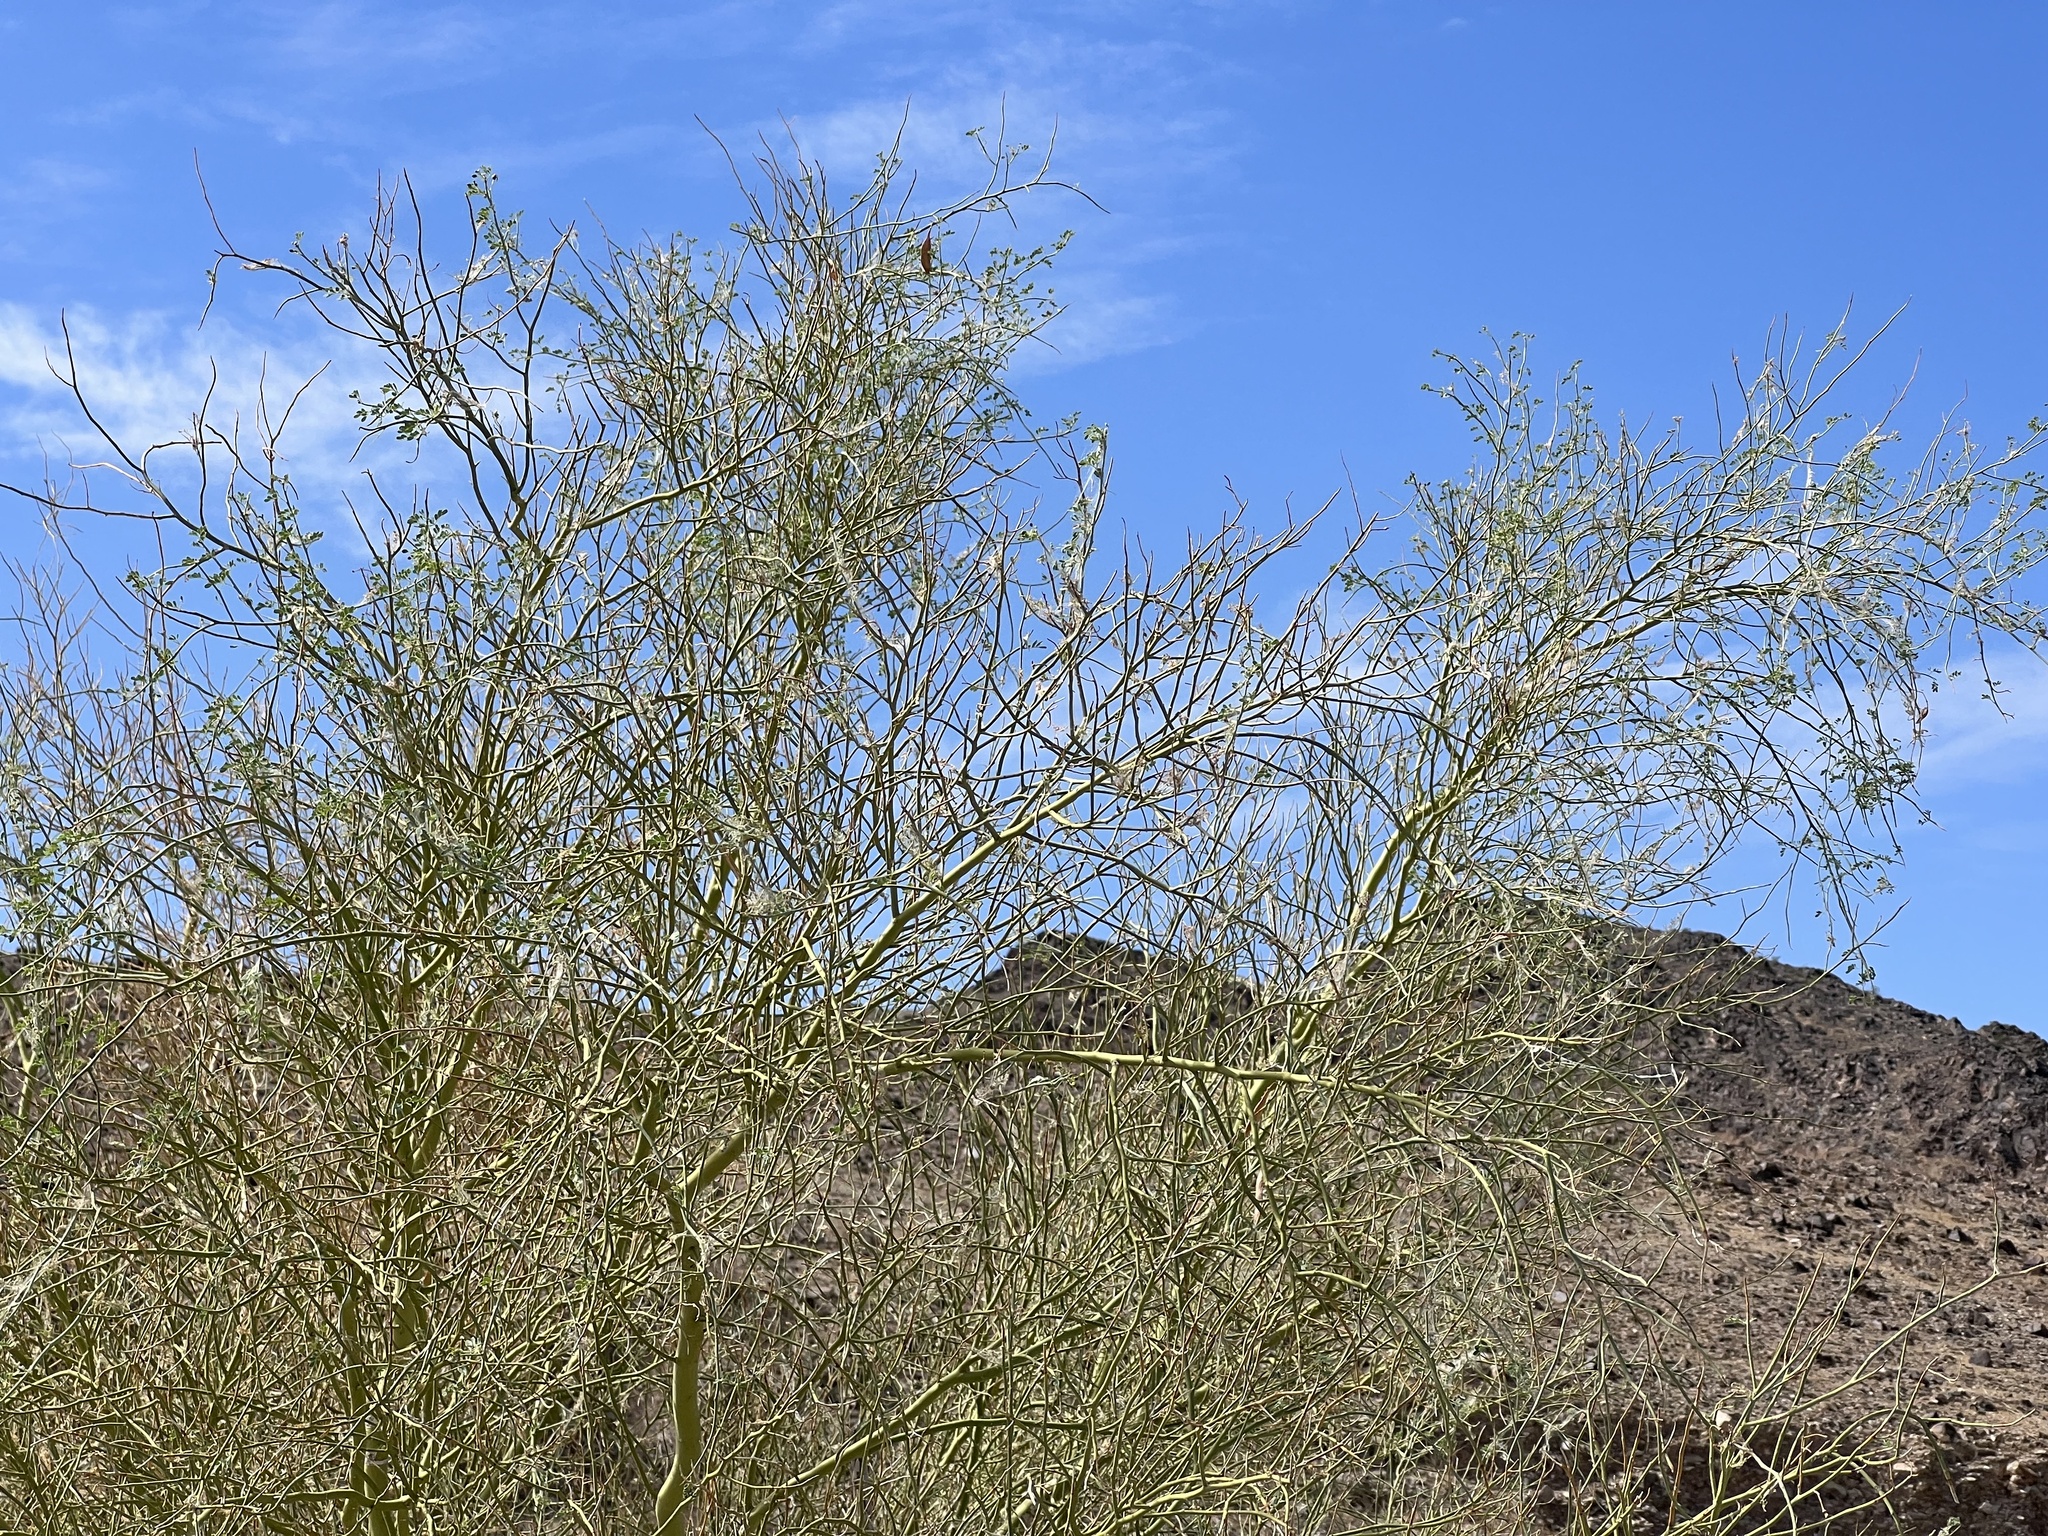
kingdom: Plantae
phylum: Tracheophyta
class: Magnoliopsida
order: Fabales
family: Fabaceae
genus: Parkinsonia
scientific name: Parkinsonia florida
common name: Blue paloverde
